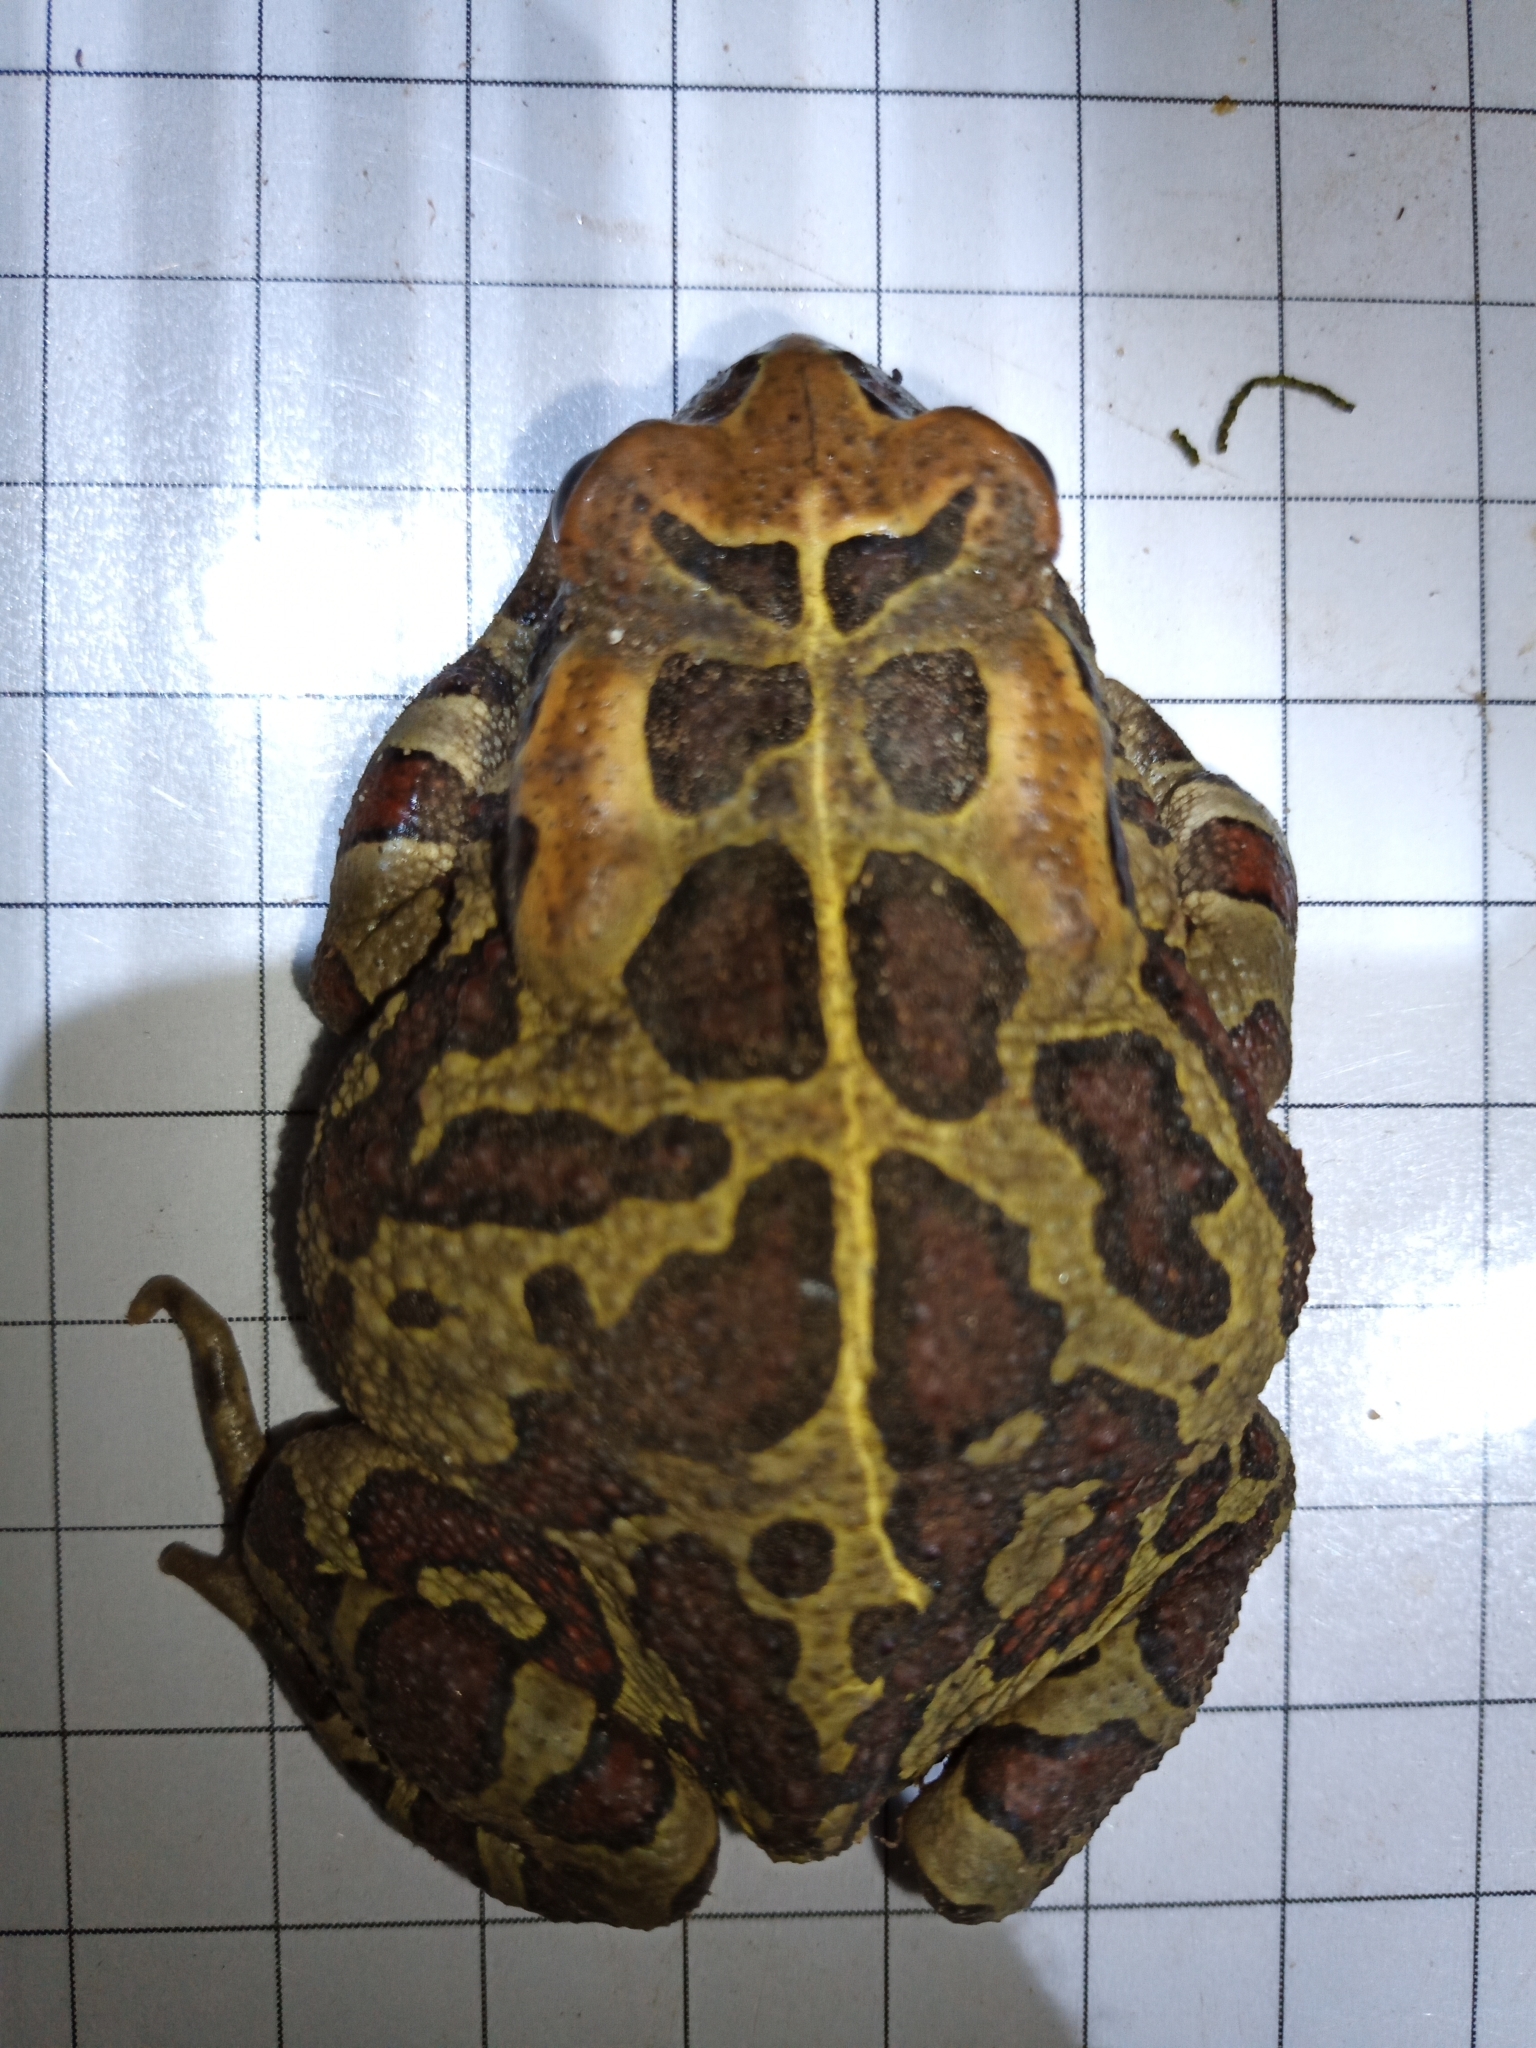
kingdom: Animalia
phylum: Chordata
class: Amphibia
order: Anura
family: Bufonidae
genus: Sclerophrys
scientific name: Sclerophrys pantherina
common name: Panther toad
